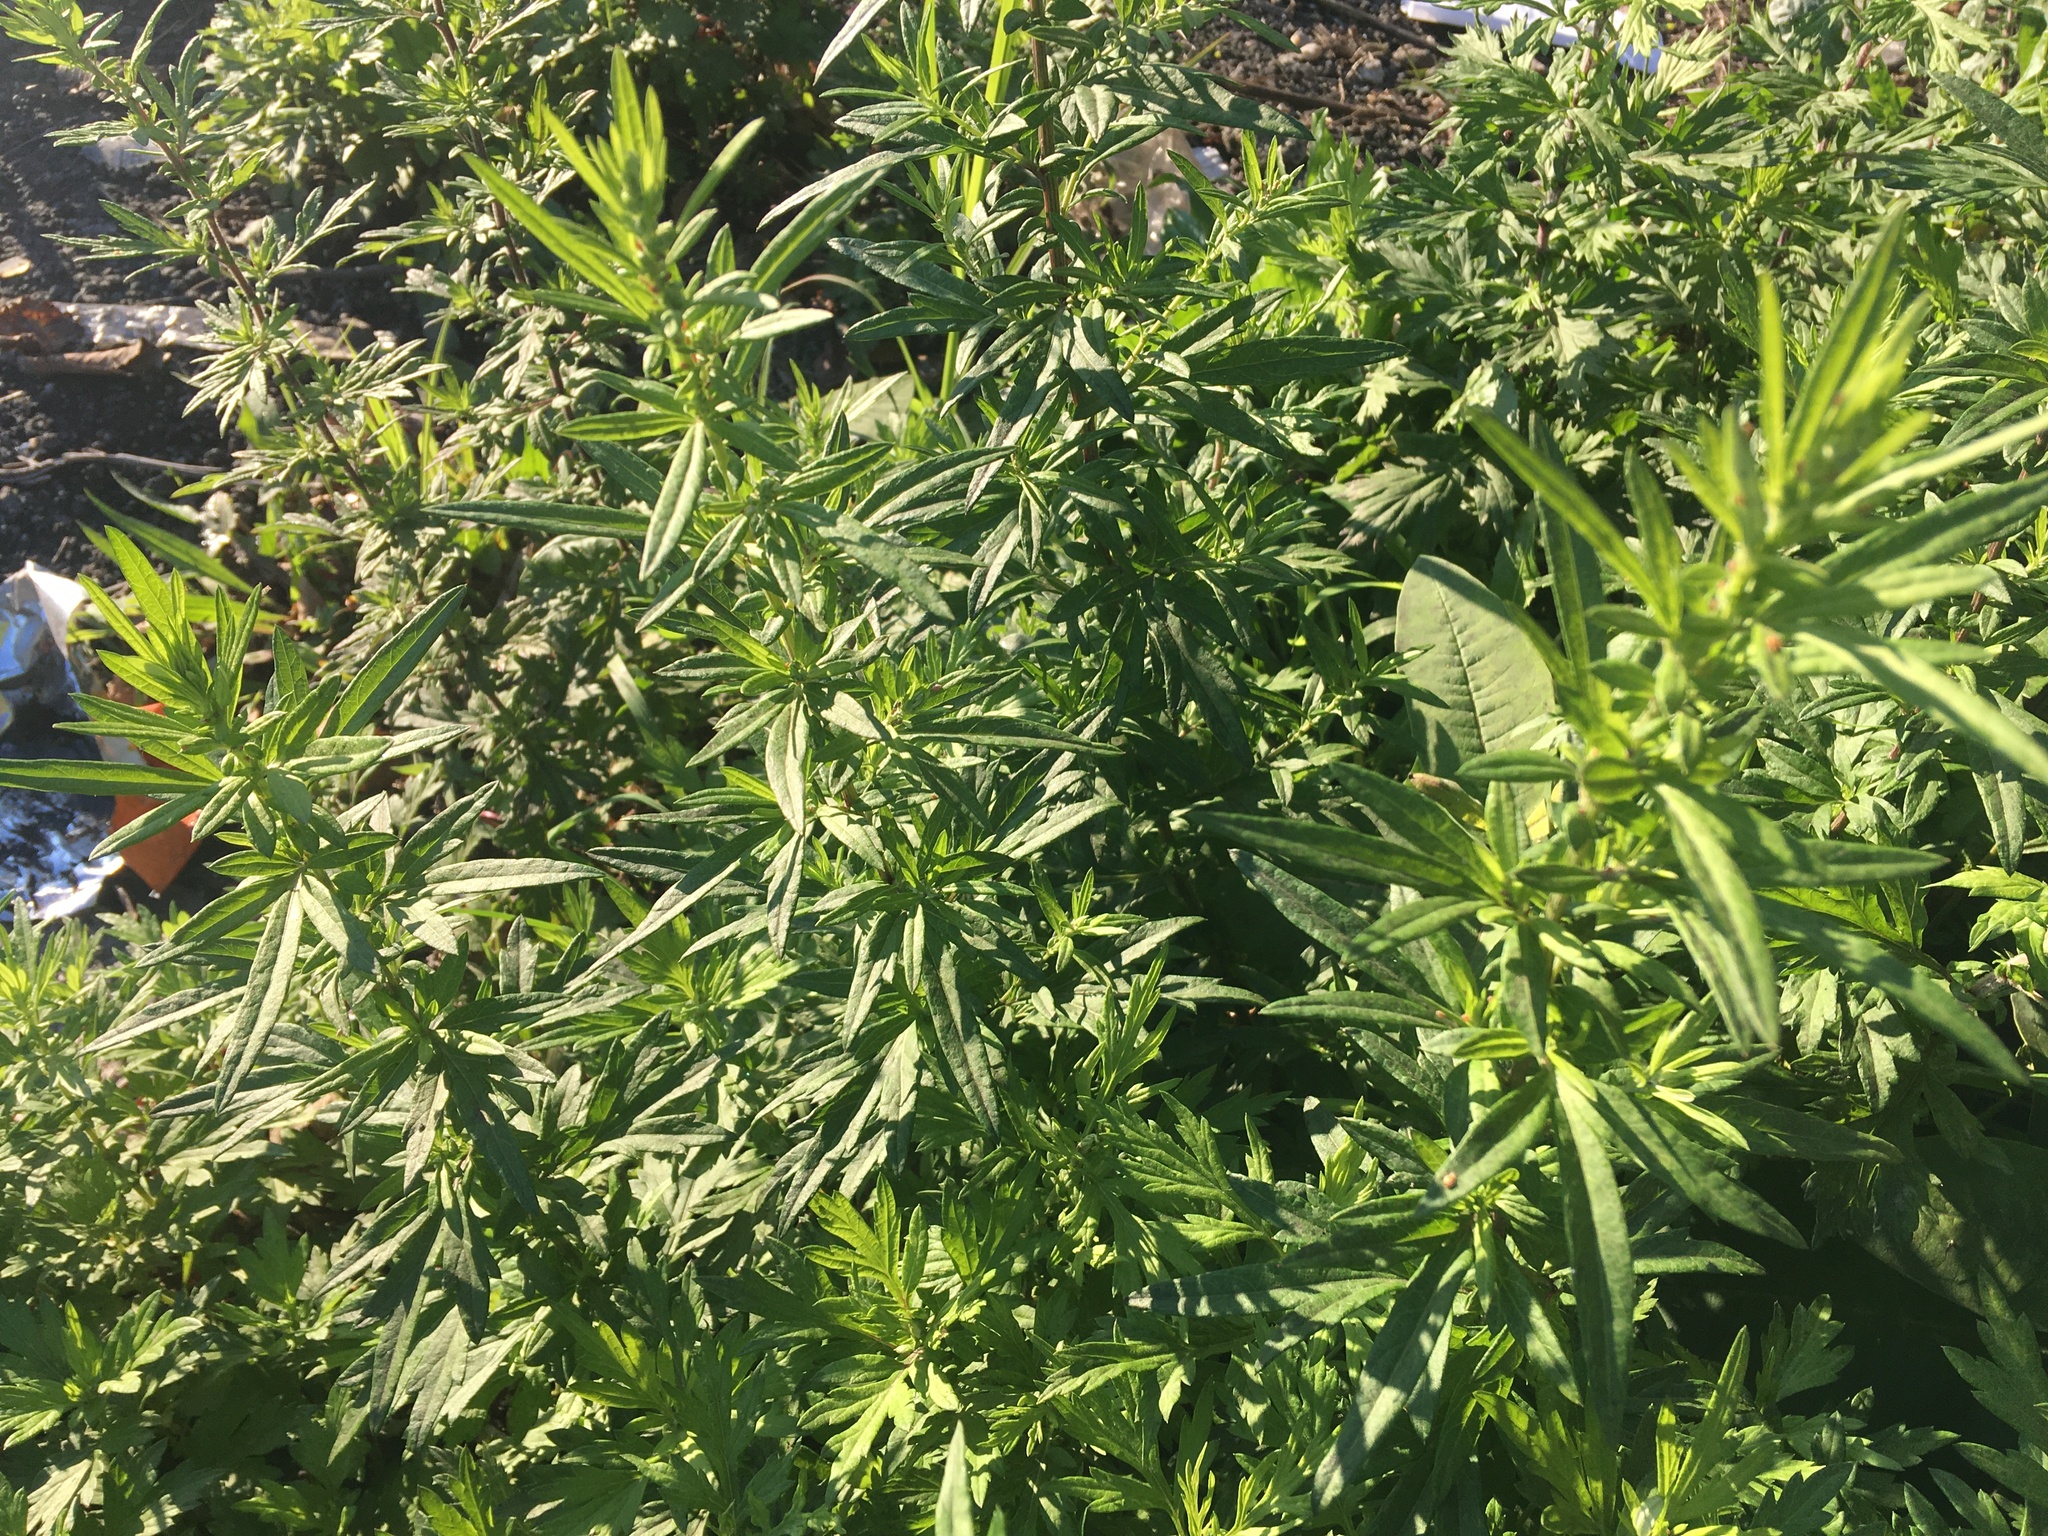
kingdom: Plantae
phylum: Tracheophyta
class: Magnoliopsida
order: Asterales
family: Asteraceae
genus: Artemisia
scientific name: Artemisia vulgaris
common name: Mugwort
